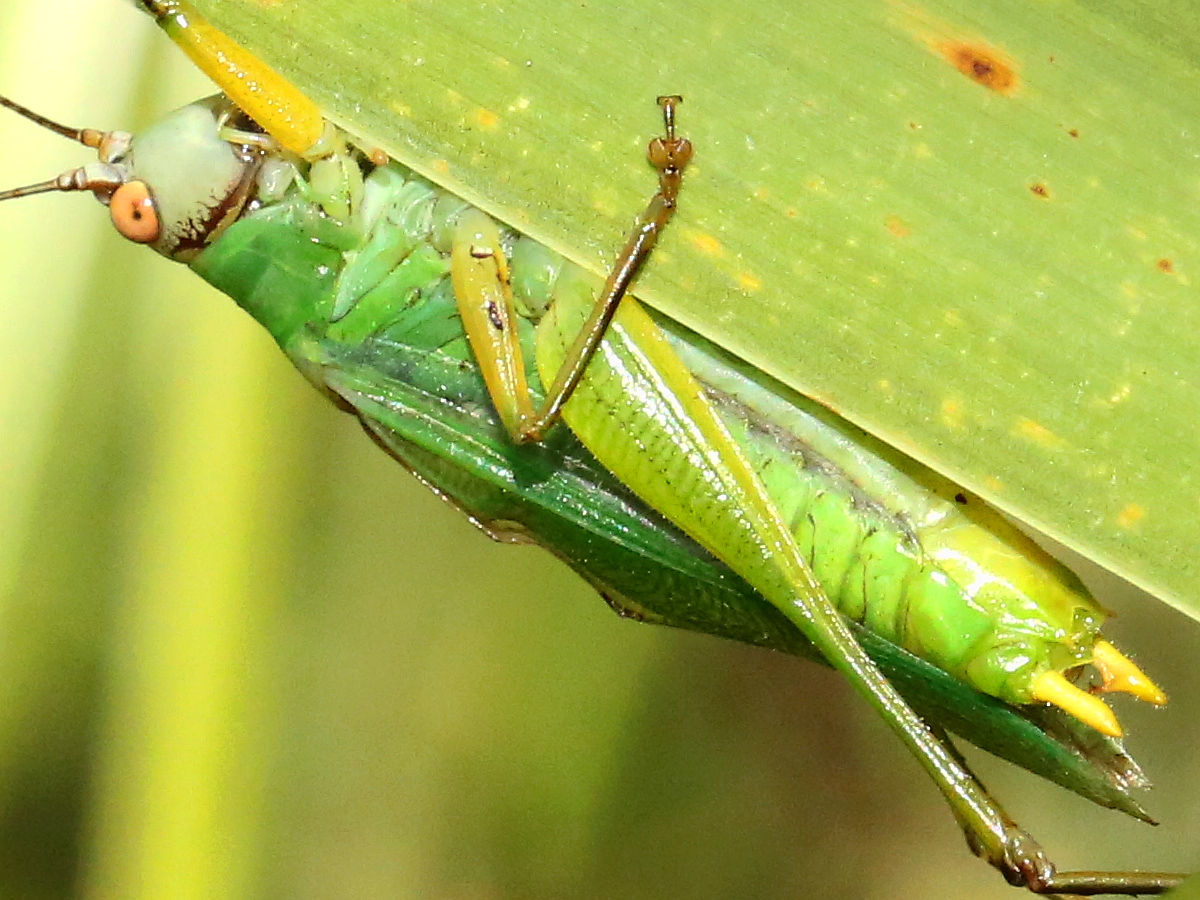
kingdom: Animalia
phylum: Arthropoda
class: Insecta
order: Orthoptera
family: Tettigoniidae
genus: Orchelimum
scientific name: Orchelimum nigripes
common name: Black-legged meadow katydid
